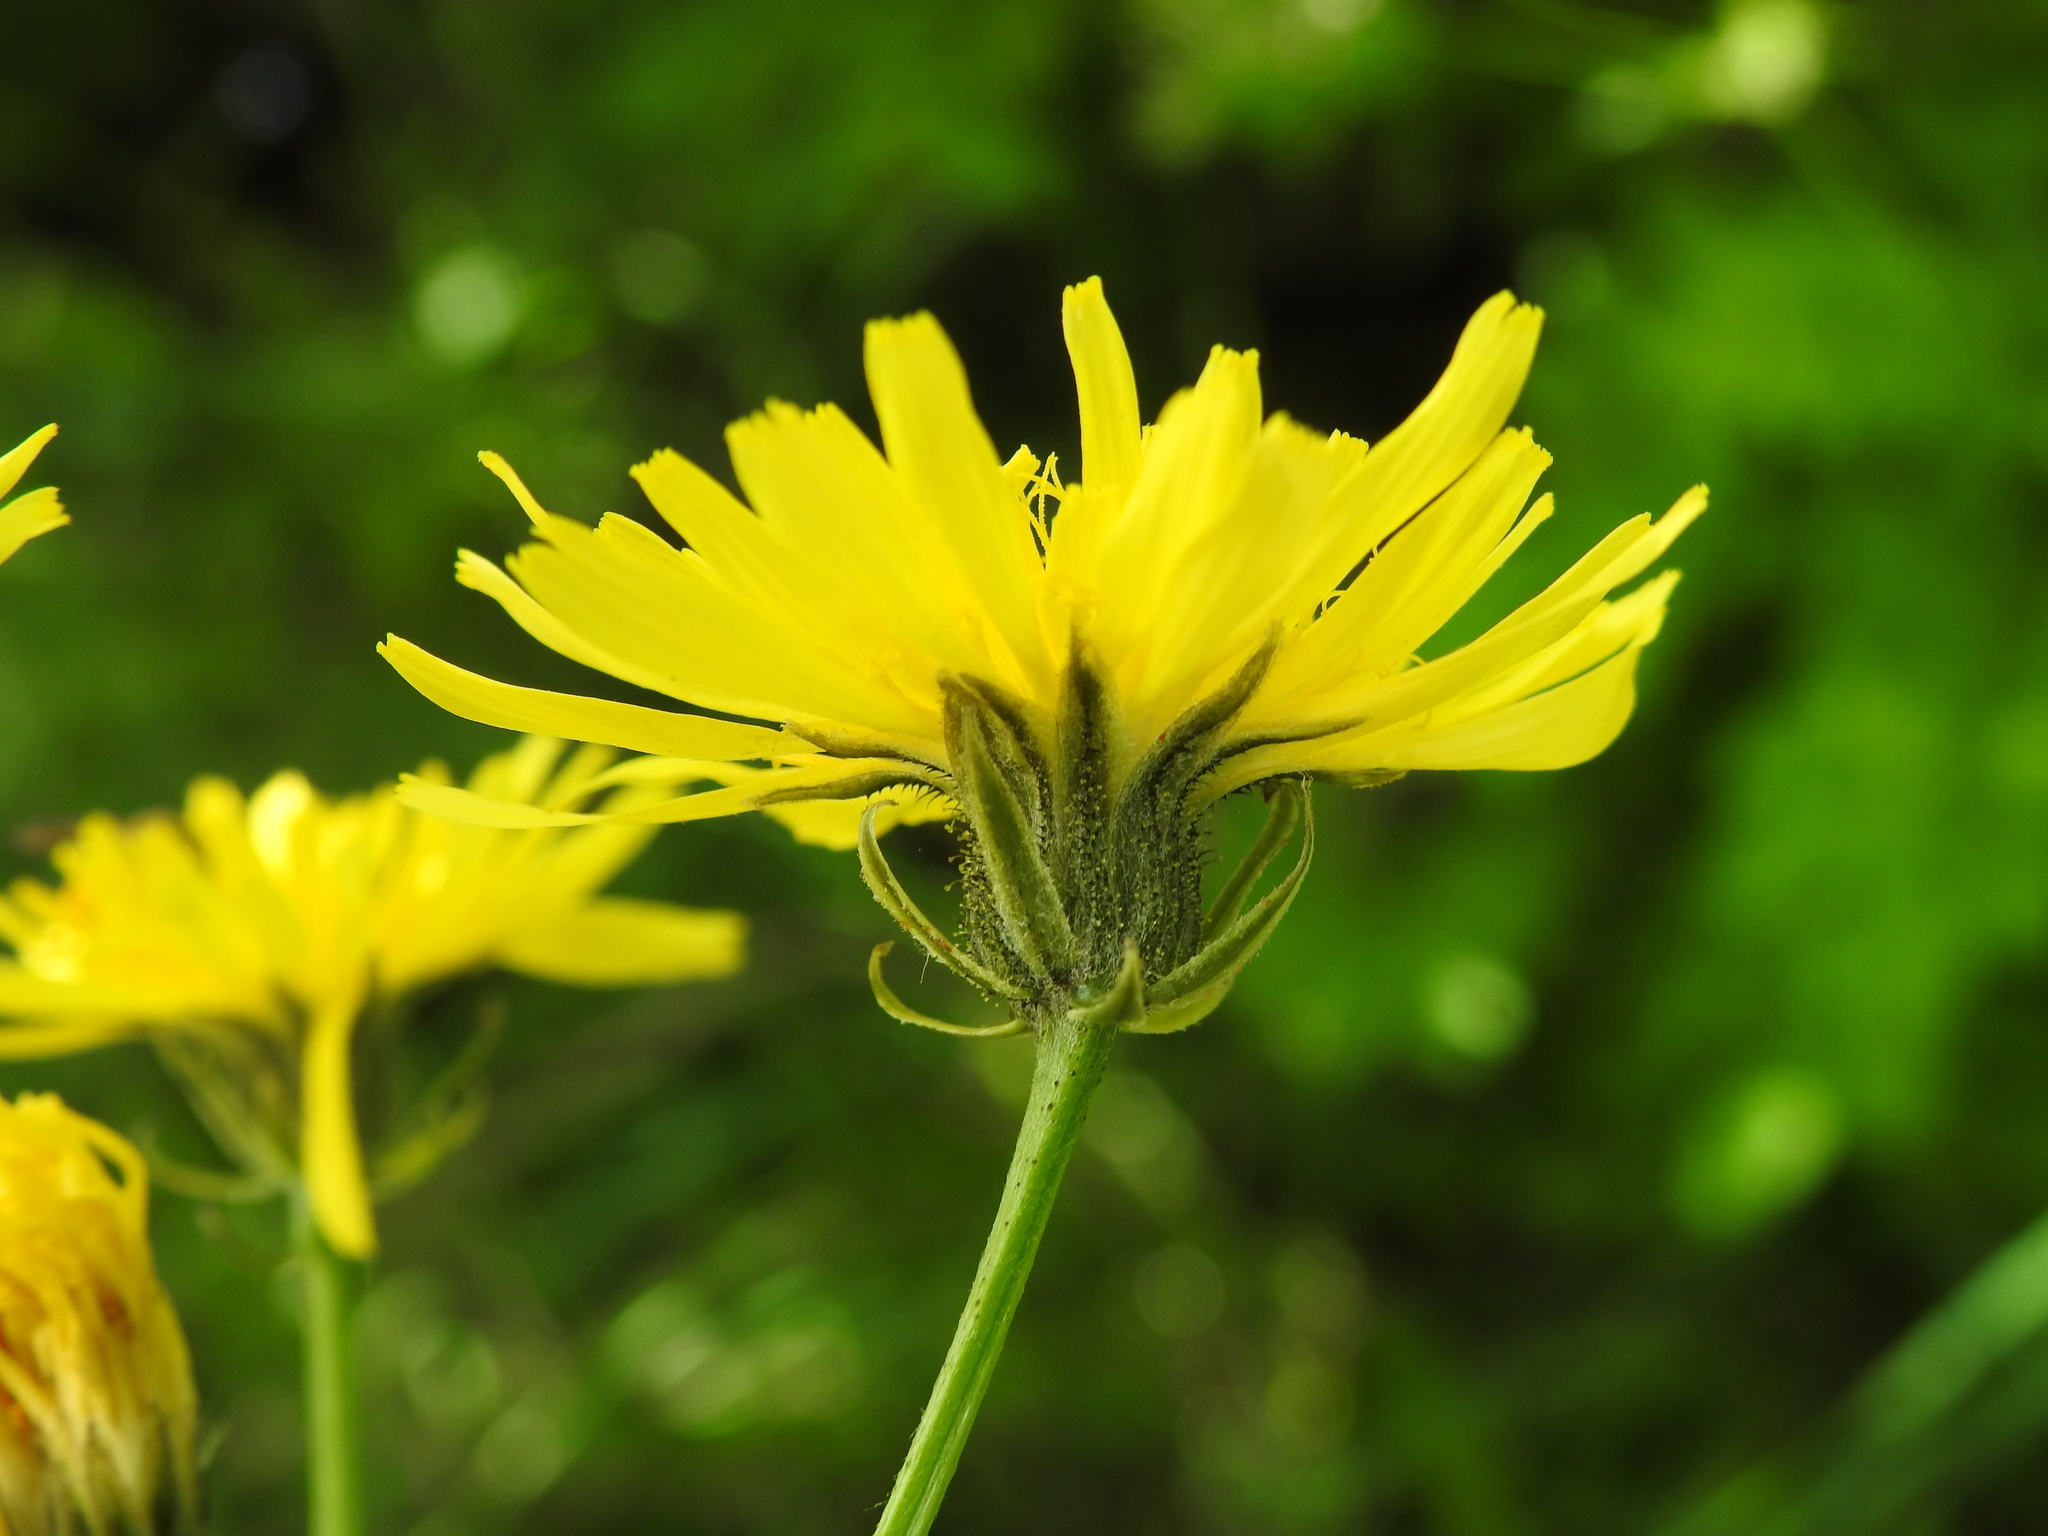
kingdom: Plantae
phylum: Tracheophyta
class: Magnoliopsida
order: Asterales
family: Asteraceae
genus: Crepis
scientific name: Crepis biennis
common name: Rough hawk's-beard
